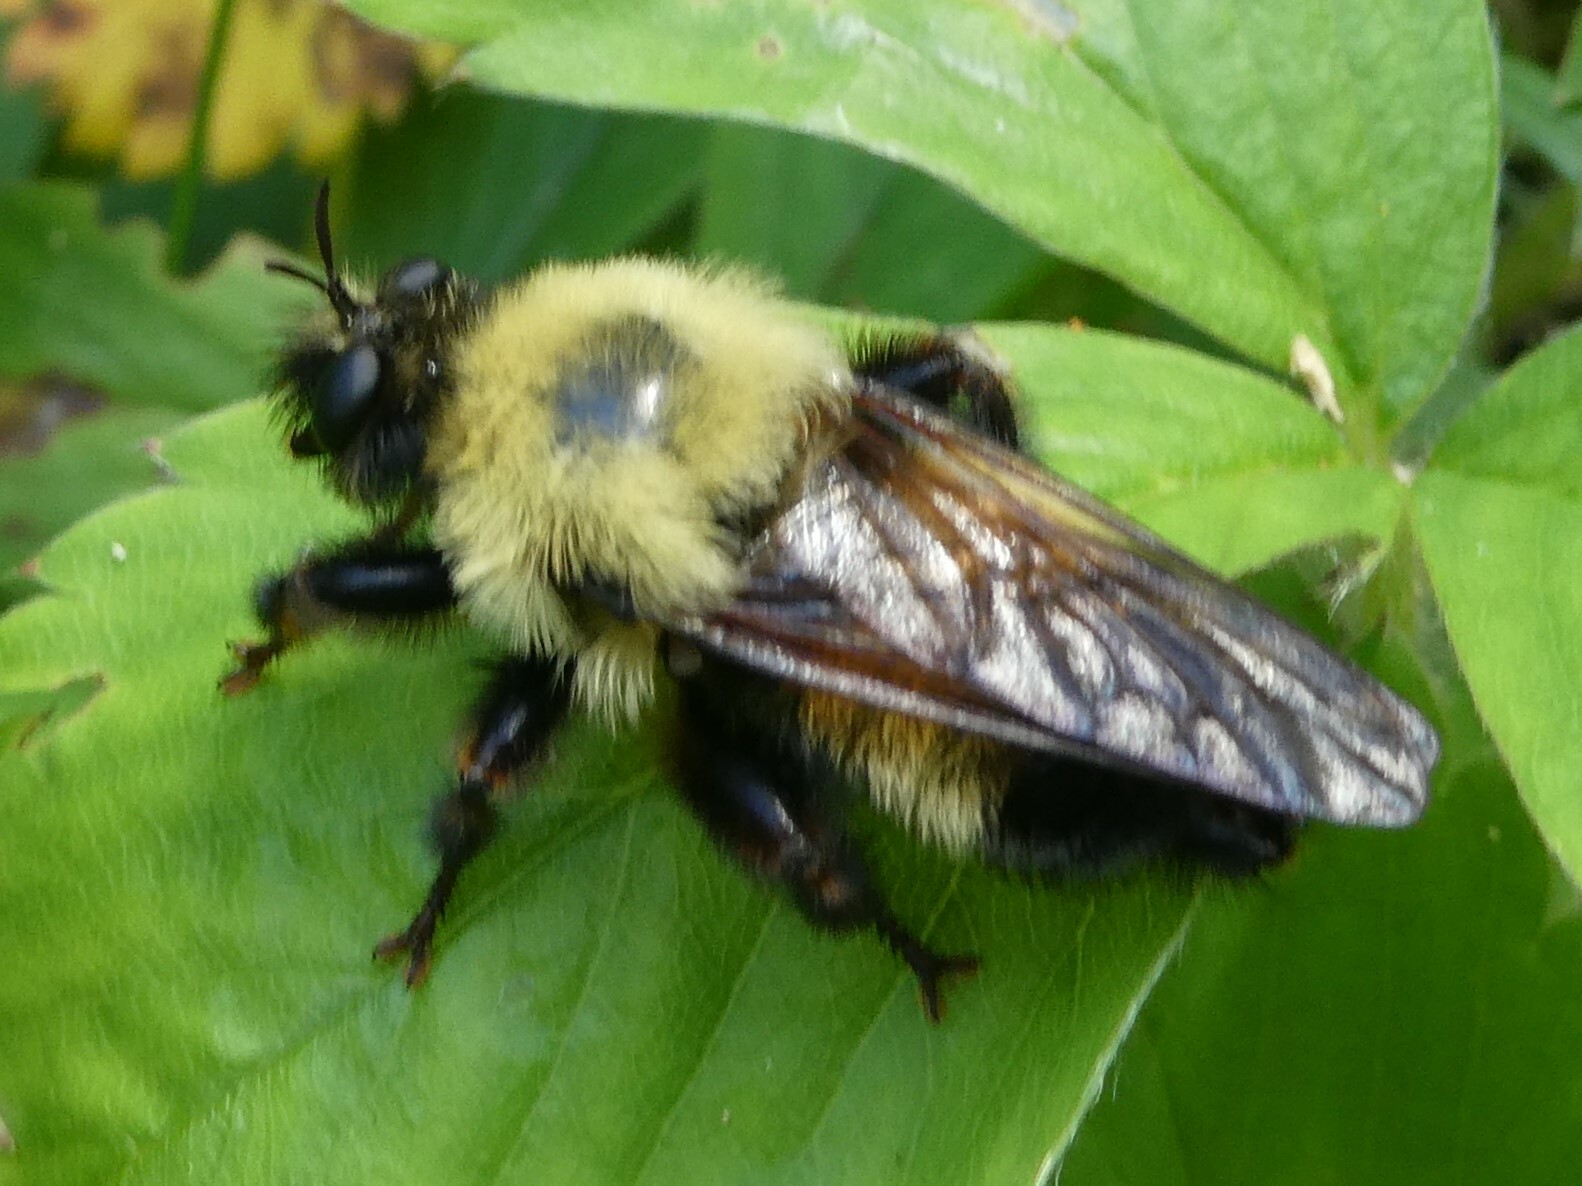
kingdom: Animalia
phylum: Arthropoda
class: Insecta
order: Diptera
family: Asilidae
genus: Laphria
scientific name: Laphria thoracica
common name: Bumble bee mimic robber fly
